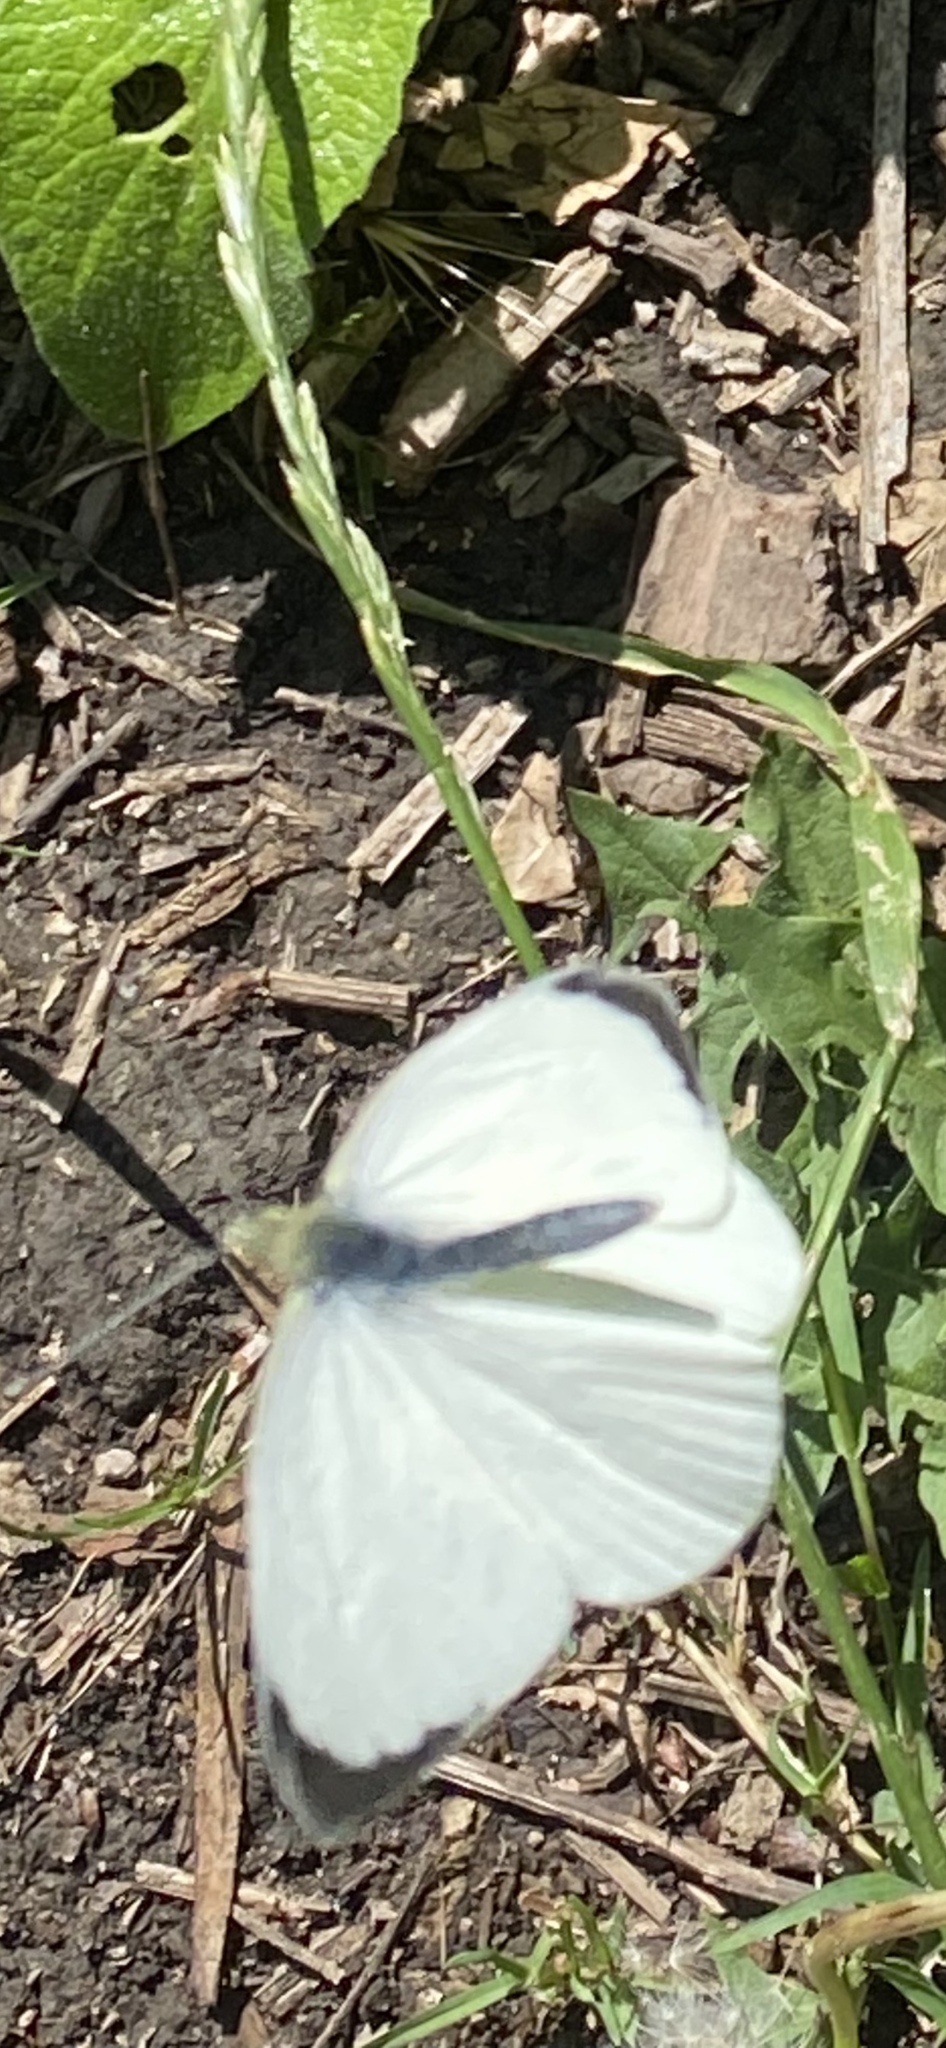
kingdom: Animalia
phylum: Arthropoda
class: Insecta
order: Lepidoptera
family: Pieridae
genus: Pieris
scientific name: Pieris brassicae
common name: Large white
